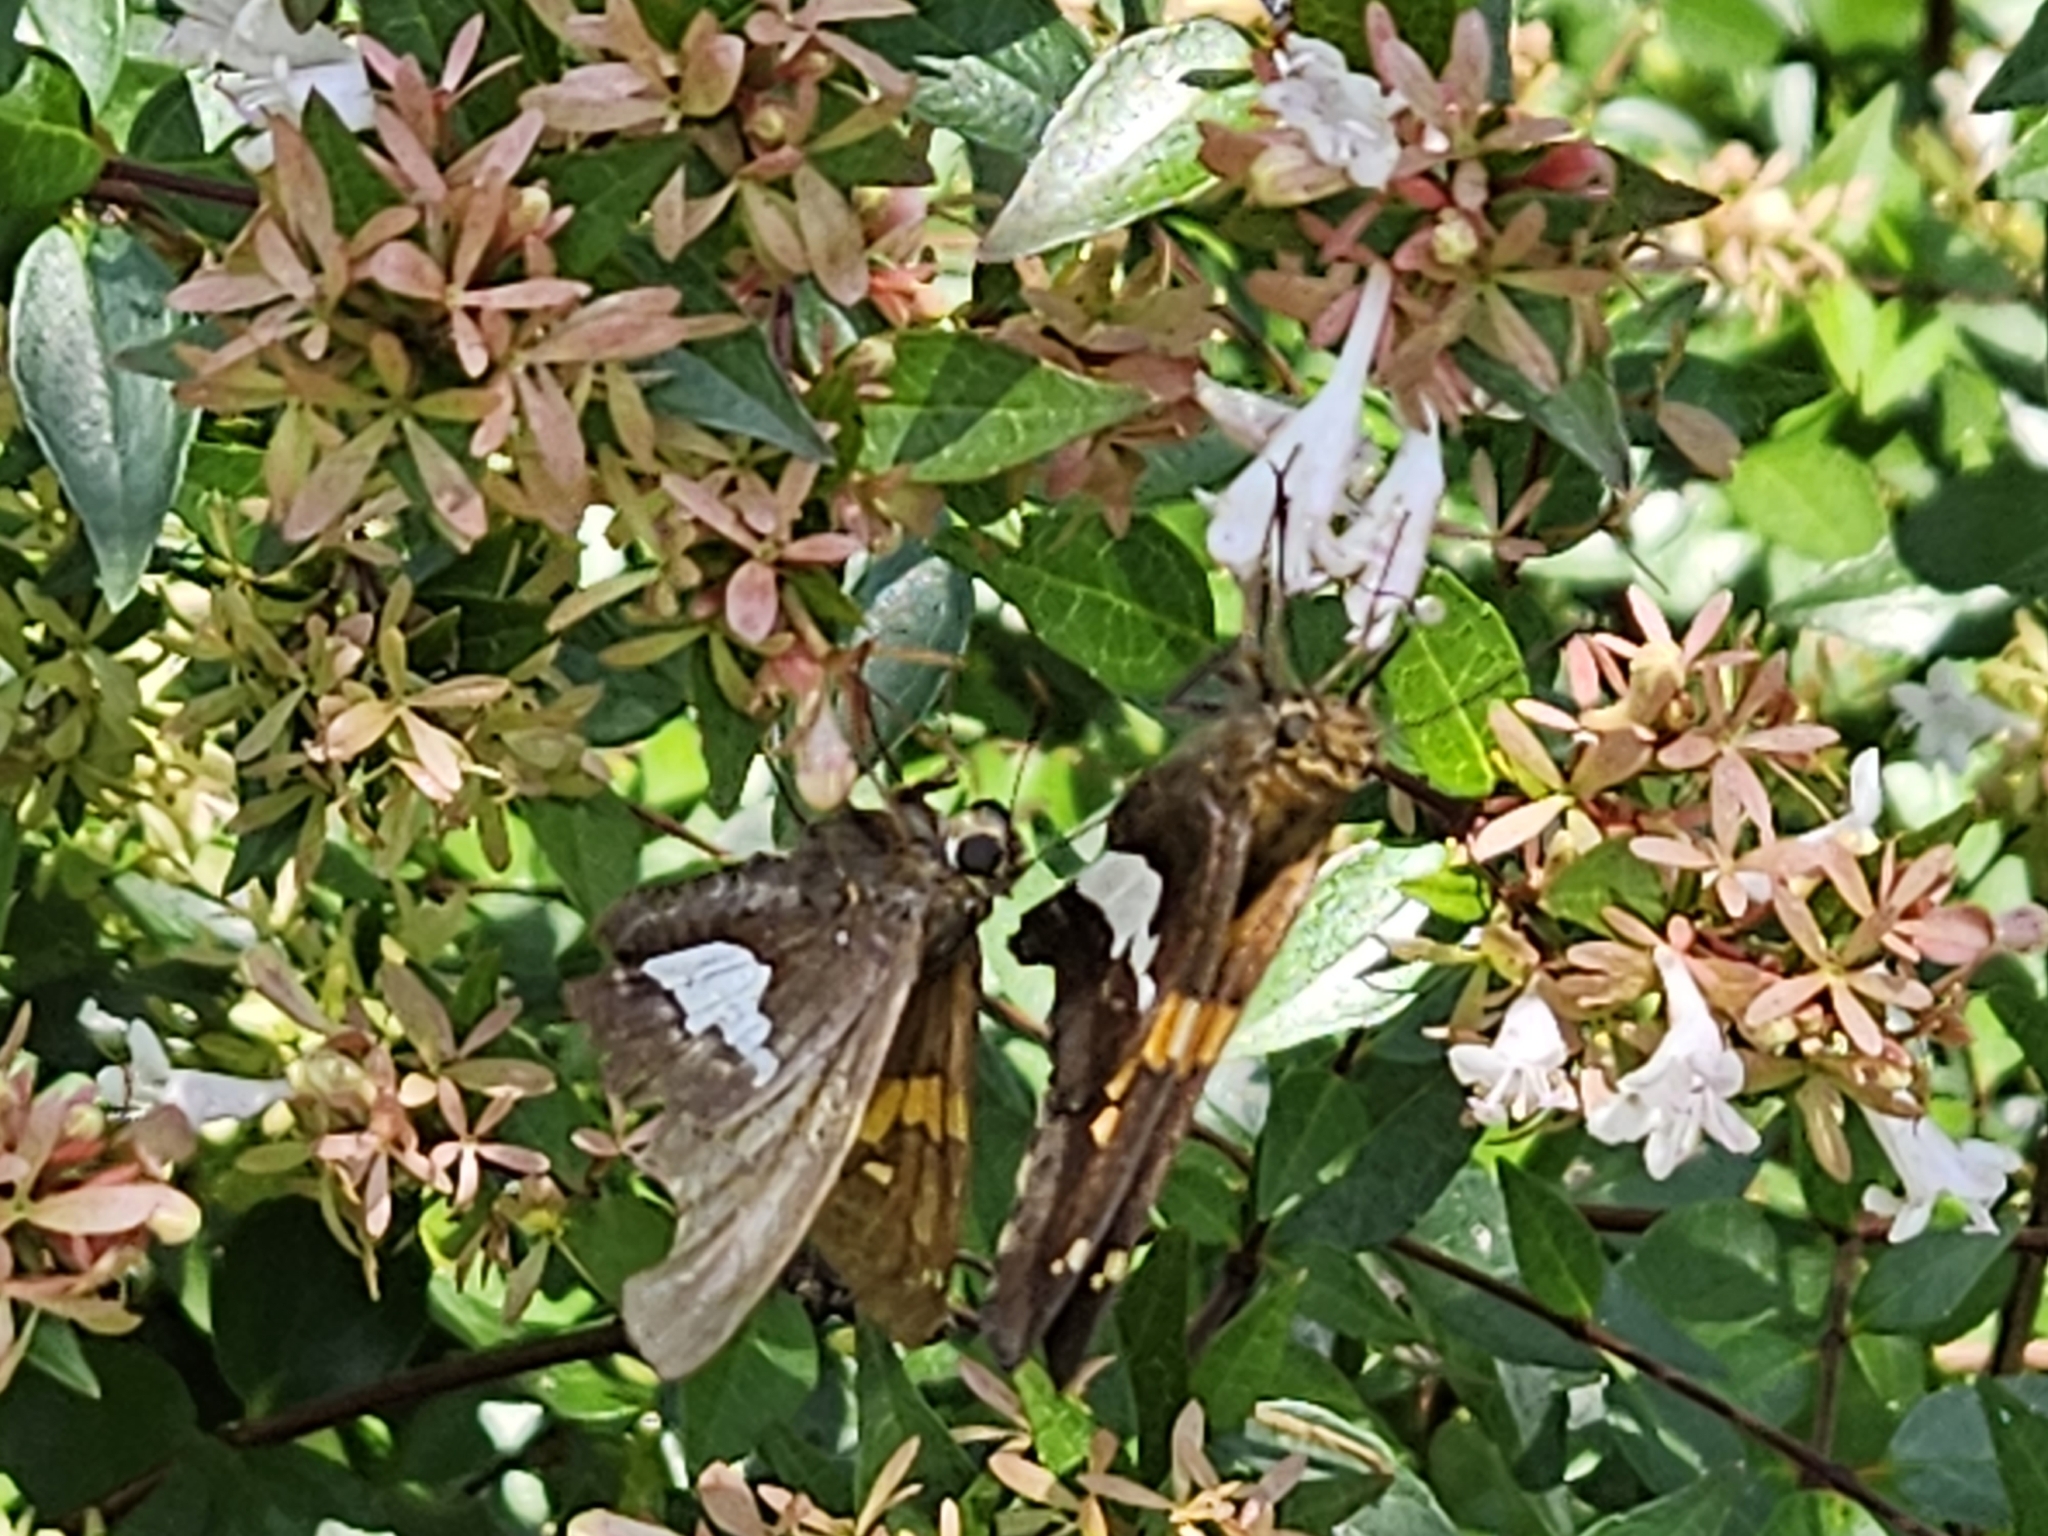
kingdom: Animalia
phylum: Arthropoda
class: Insecta
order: Lepidoptera
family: Hesperiidae
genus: Epargyreus
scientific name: Epargyreus clarus
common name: Silver-spotted skipper
